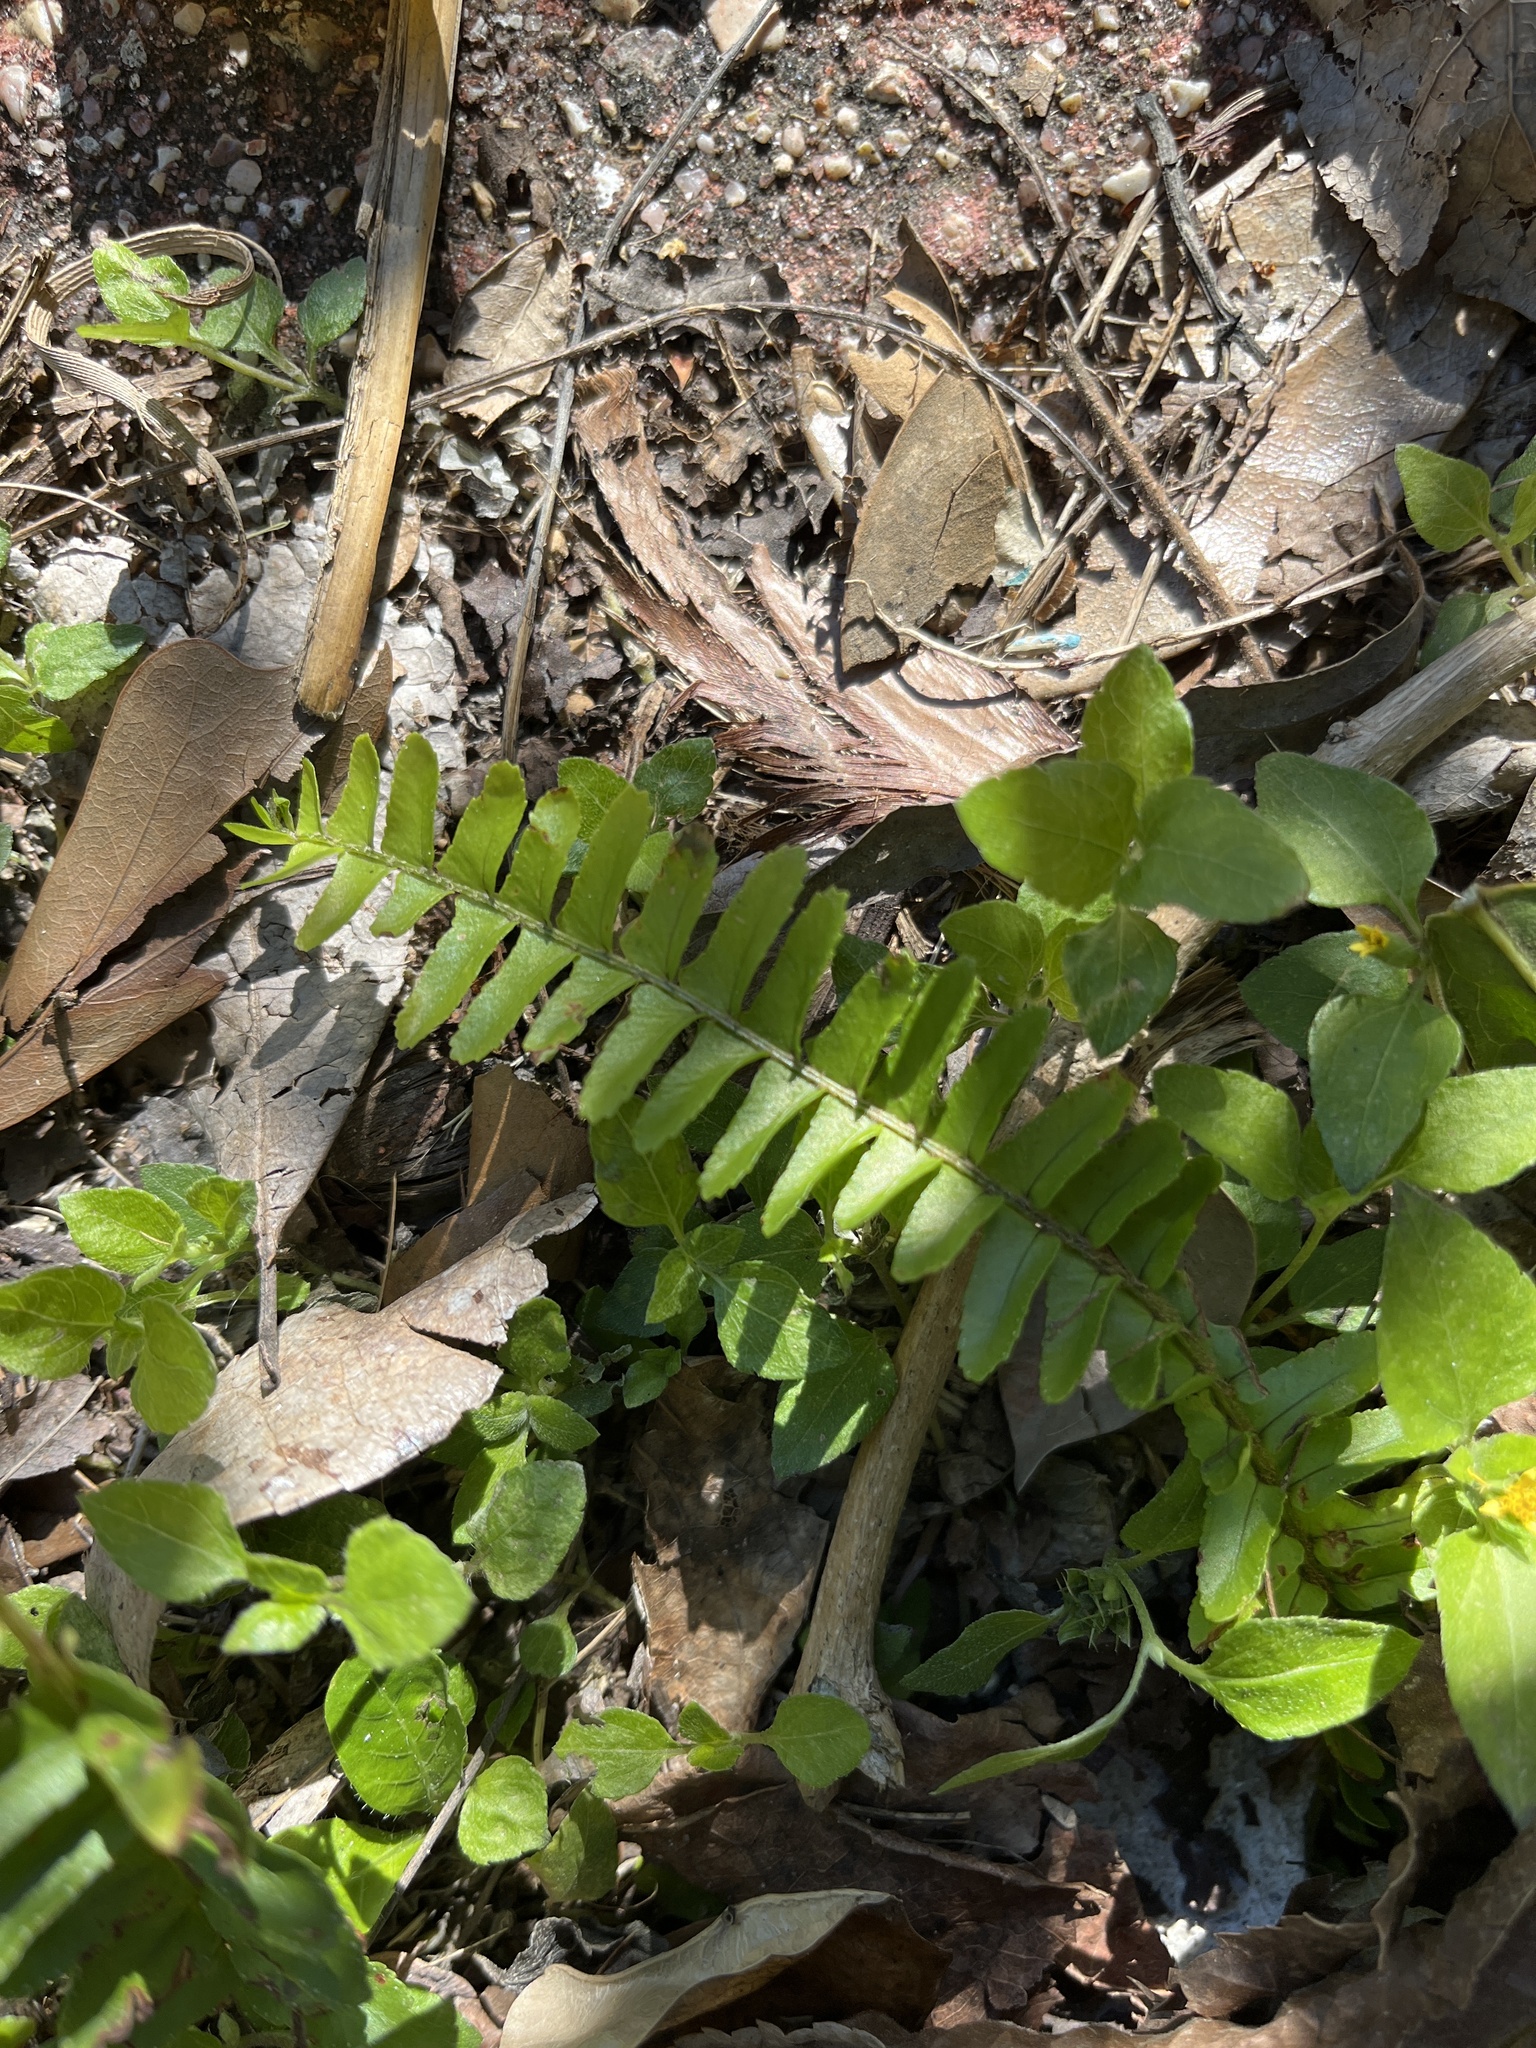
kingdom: Plantae
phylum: Tracheophyta
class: Polypodiopsida
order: Polypodiales
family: Nephrolepidaceae
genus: Nephrolepis
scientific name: Nephrolepis cordifolia
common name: Narrow swordfern
